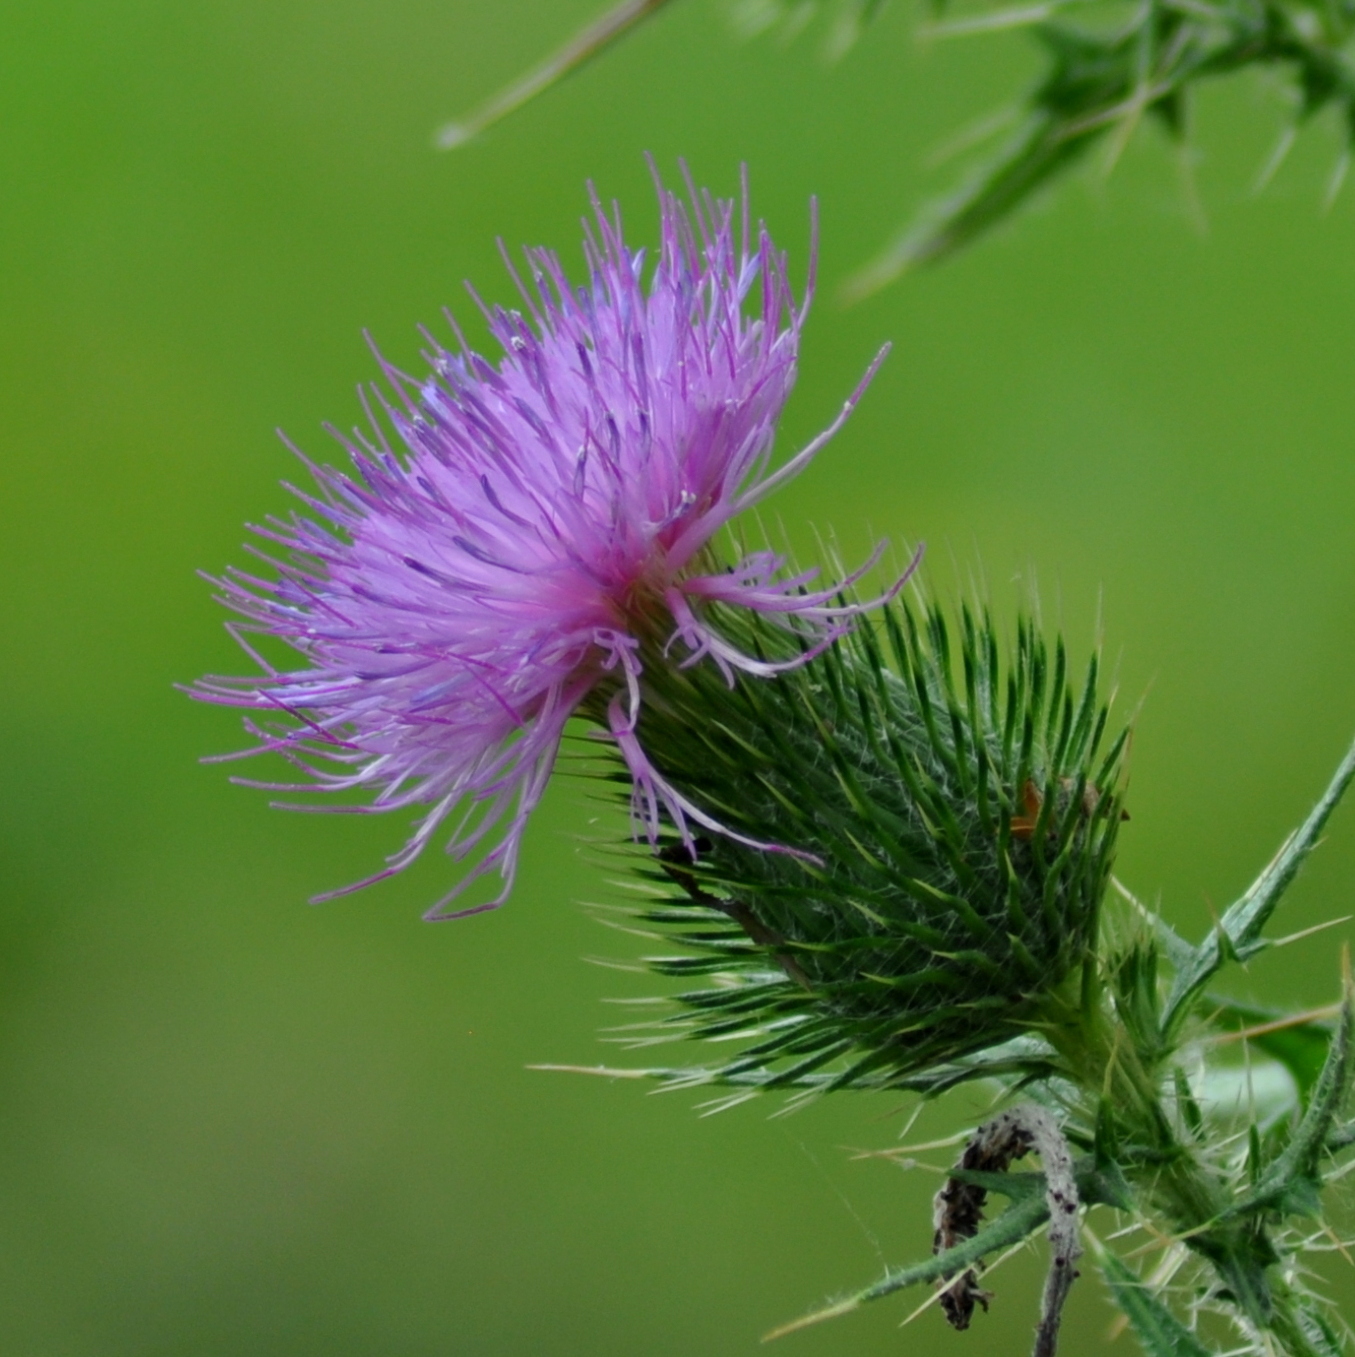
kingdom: Plantae
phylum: Tracheophyta
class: Magnoliopsida
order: Asterales
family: Asteraceae
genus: Cirsium
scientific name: Cirsium vulgare
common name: Bull thistle
